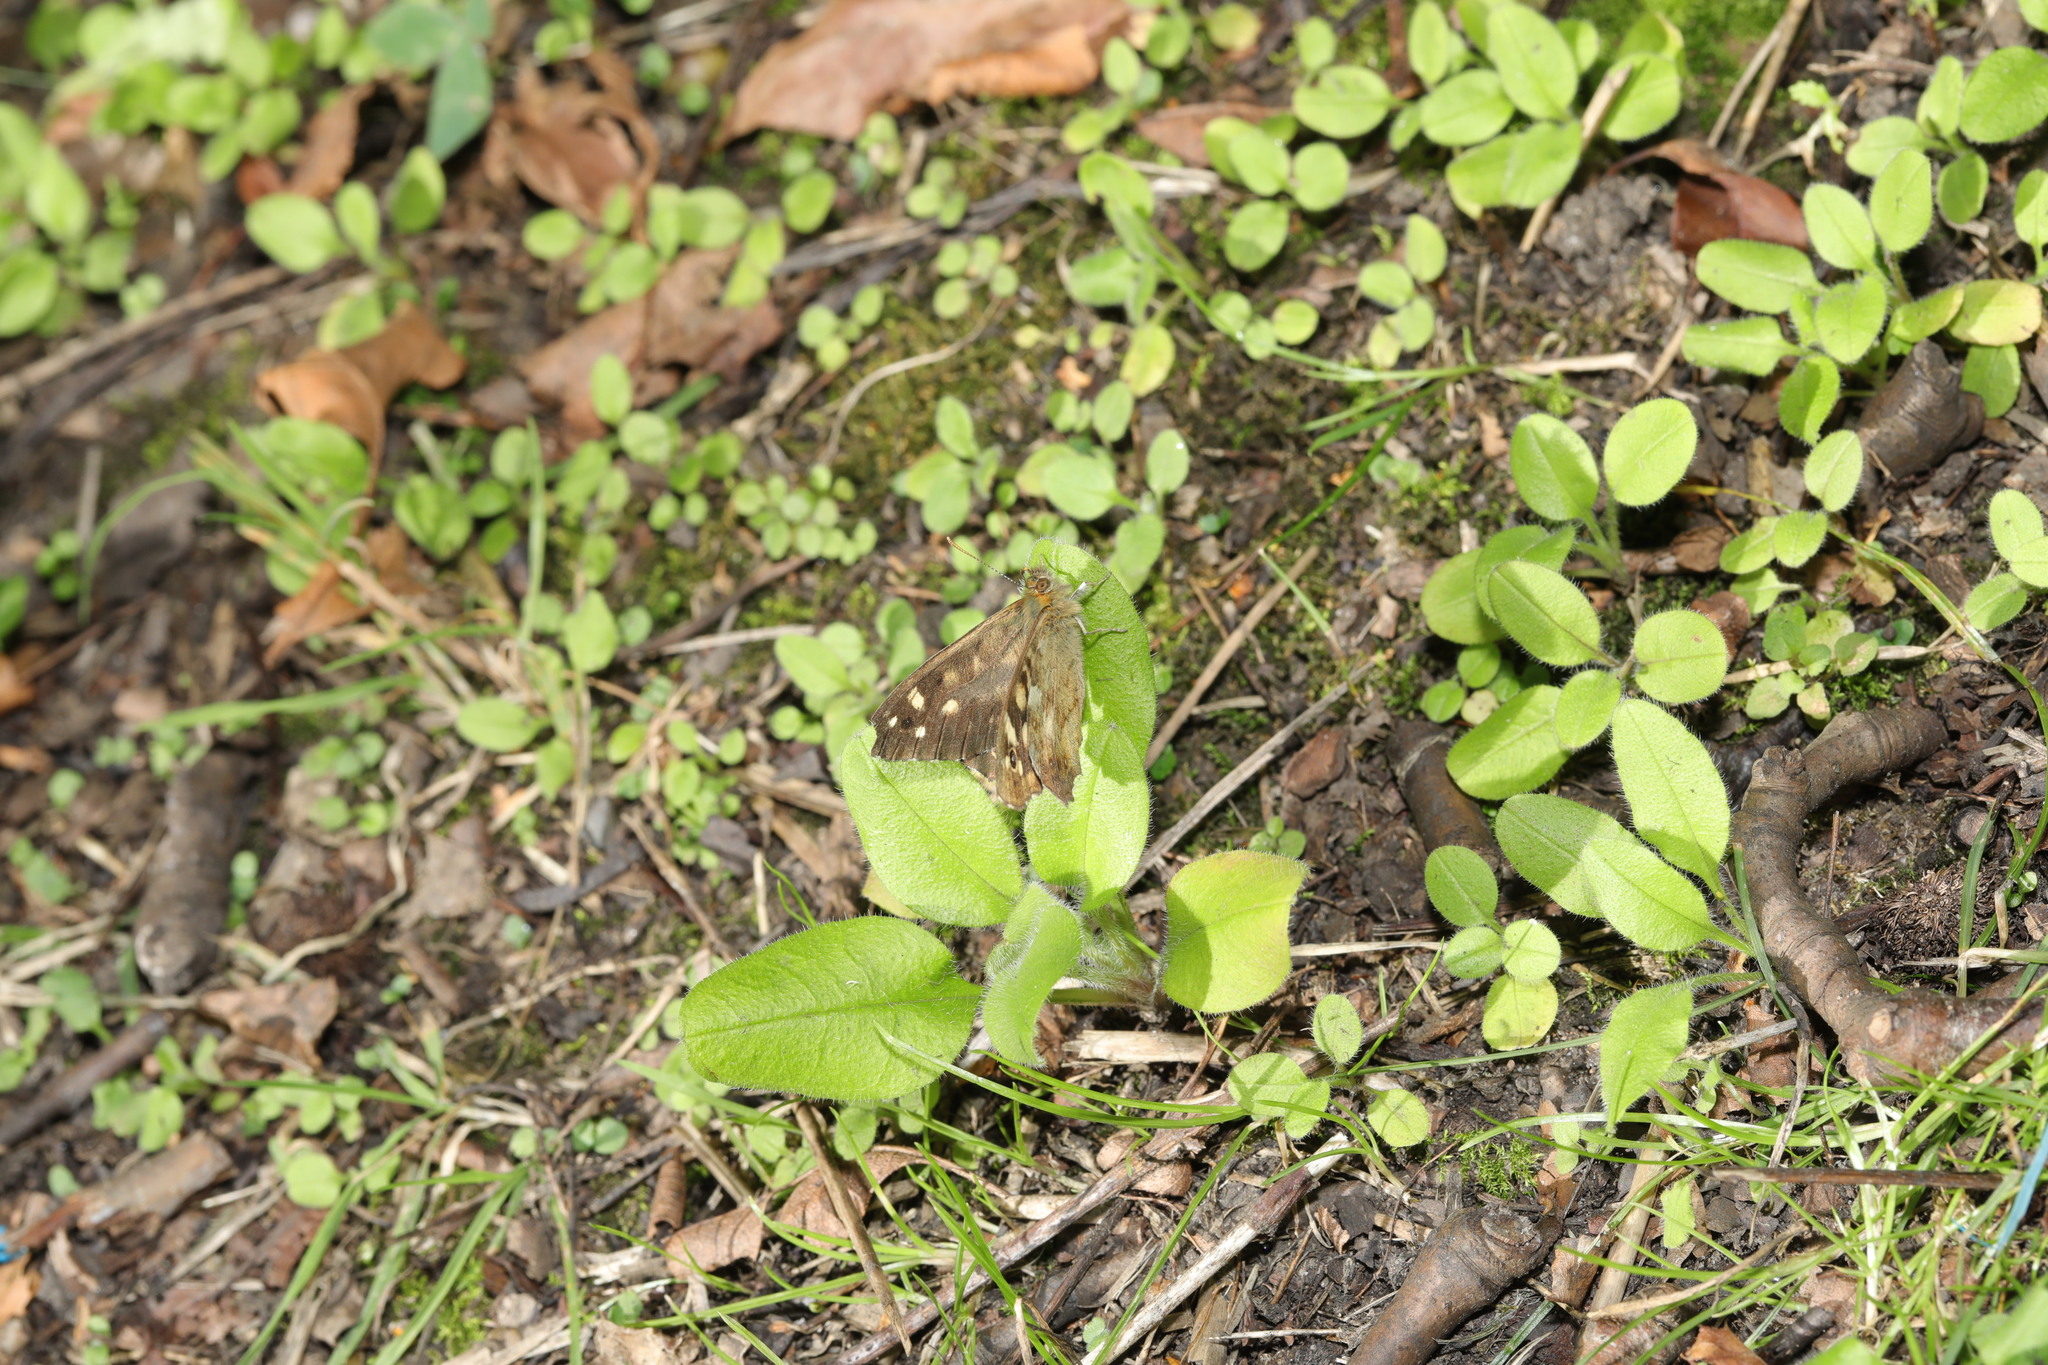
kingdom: Animalia
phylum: Arthropoda
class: Insecta
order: Lepidoptera
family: Nymphalidae
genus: Pararge
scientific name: Pararge aegeria
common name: Speckled wood
